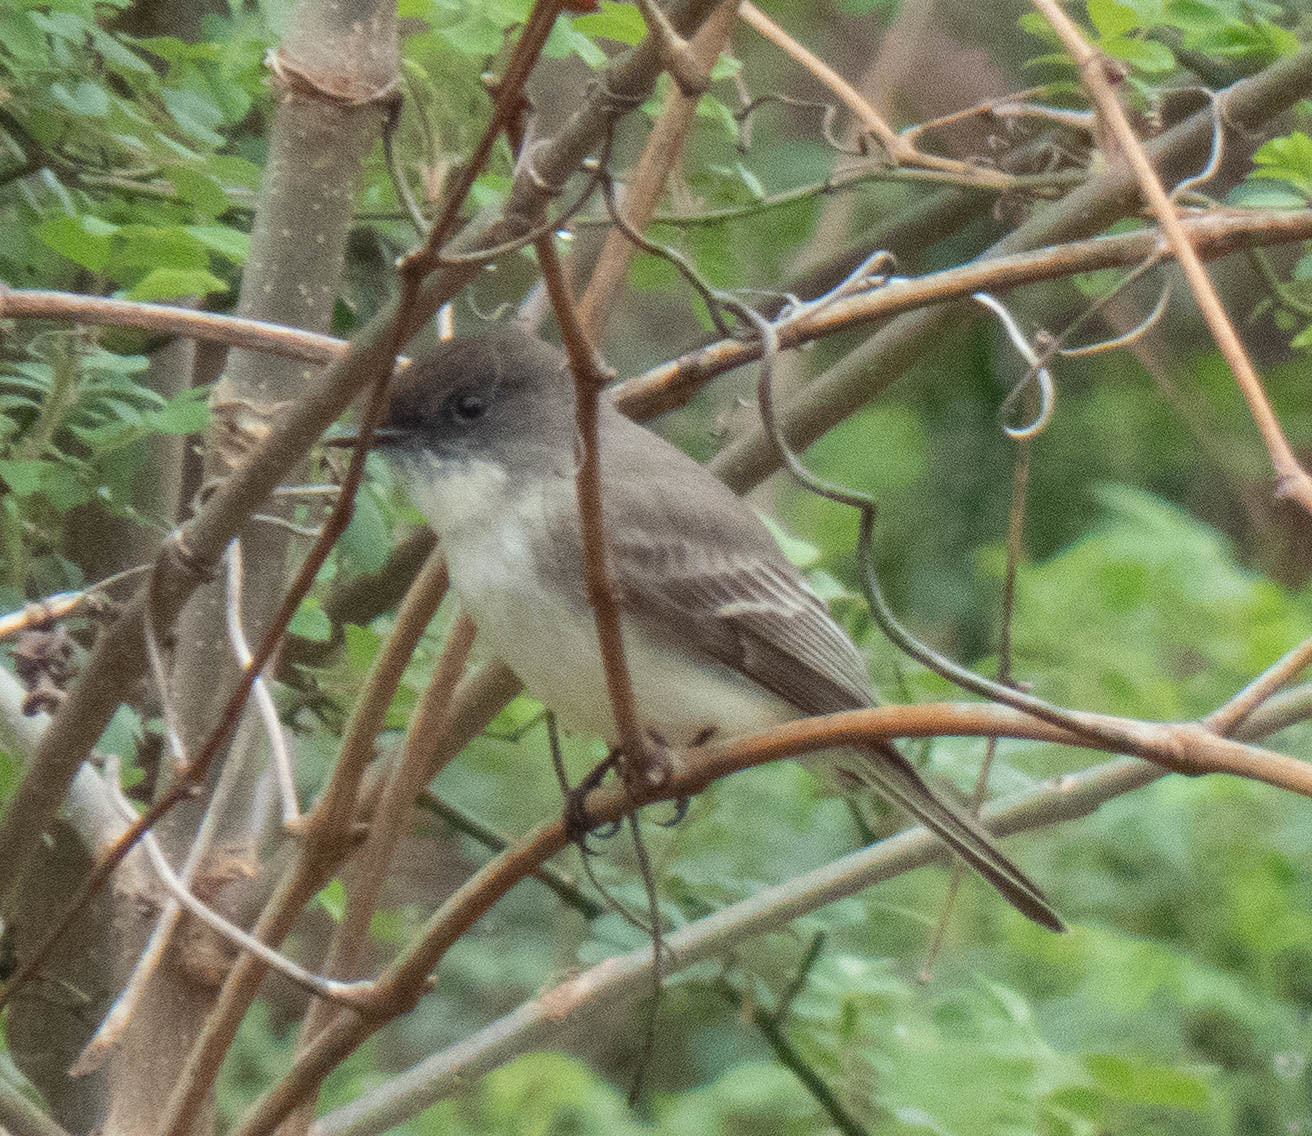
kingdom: Animalia
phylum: Chordata
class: Aves
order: Passeriformes
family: Tyrannidae
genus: Sayornis
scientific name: Sayornis phoebe
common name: Eastern phoebe
